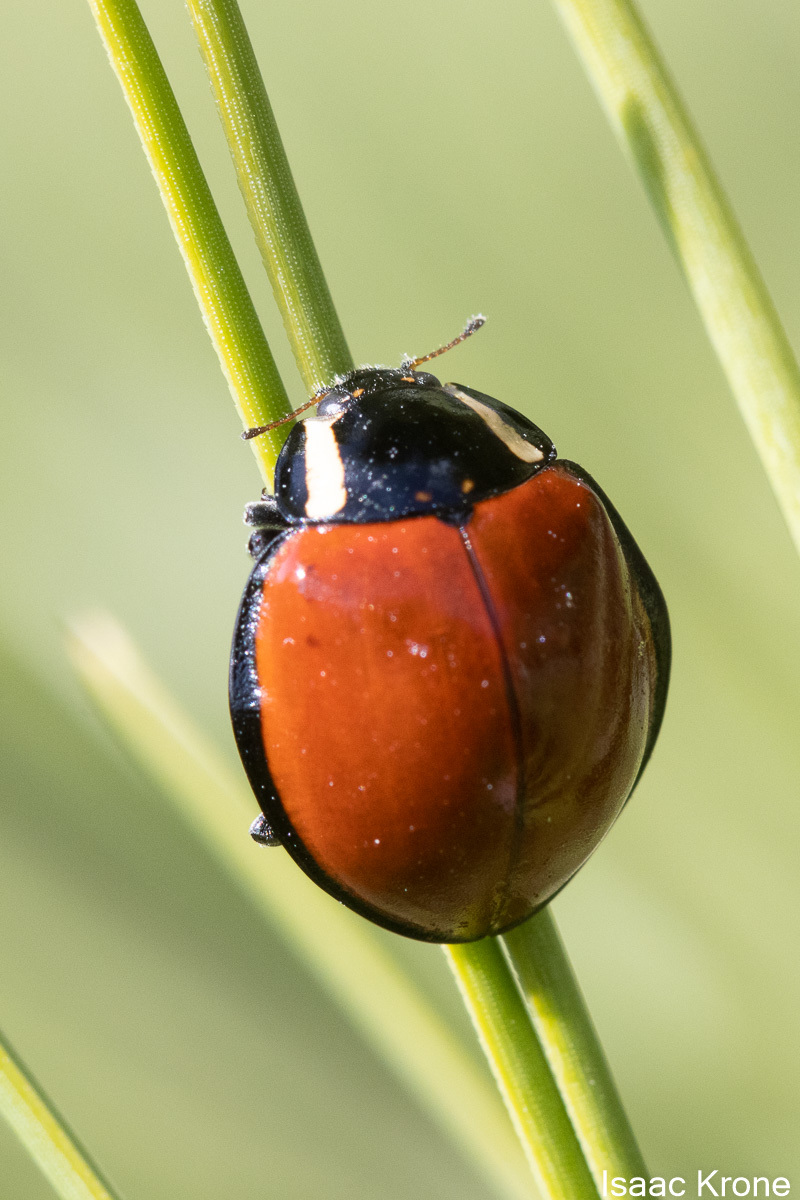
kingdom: Animalia
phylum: Arthropoda
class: Insecta
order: Coleoptera
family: Coccinellidae
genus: Anatis
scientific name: Anatis lecontei
